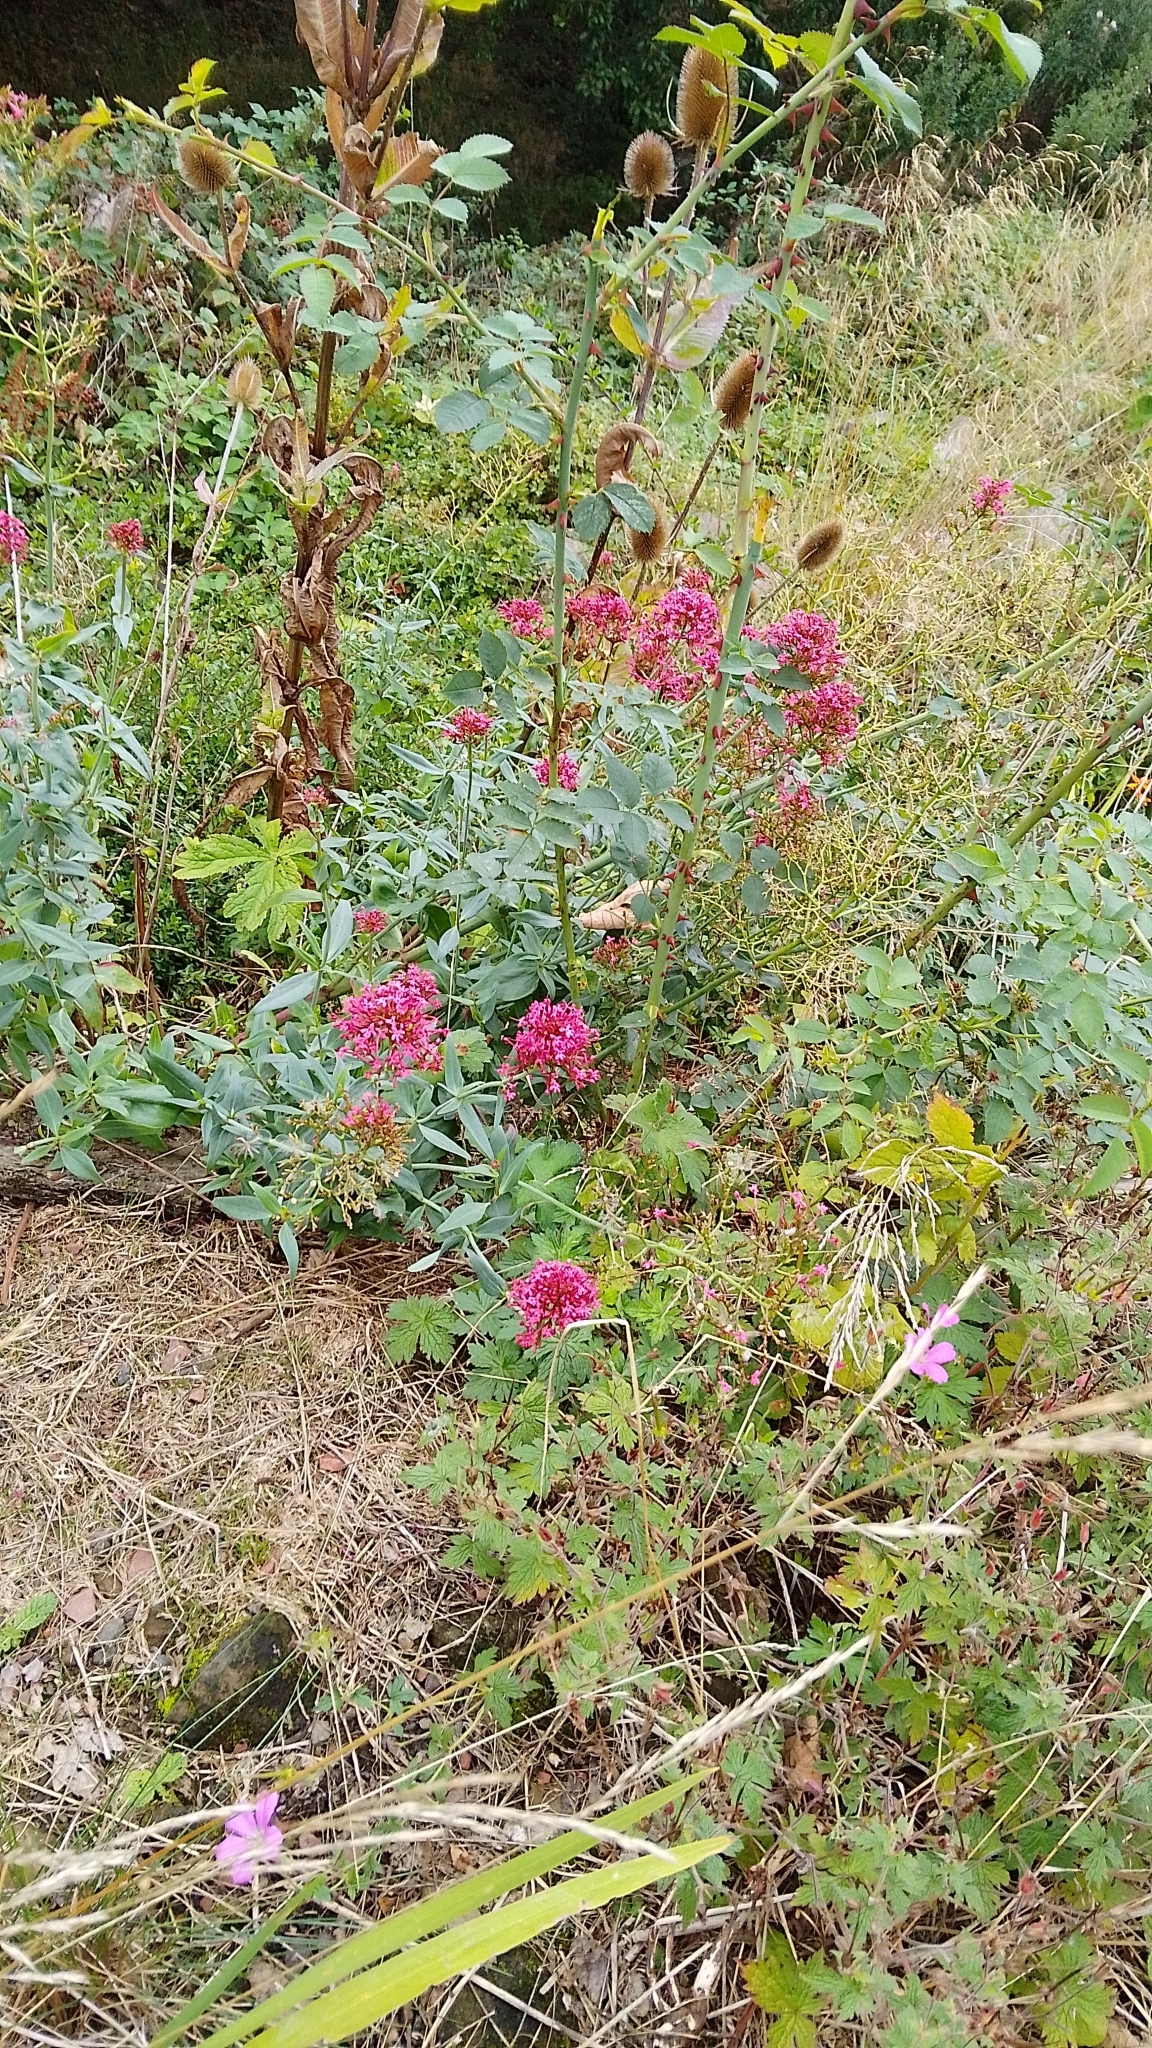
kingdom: Plantae
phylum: Tracheophyta
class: Magnoliopsida
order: Dipsacales
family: Caprifoliaceae
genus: Centranthus
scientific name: Centranthus ruber
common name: Red valerian
